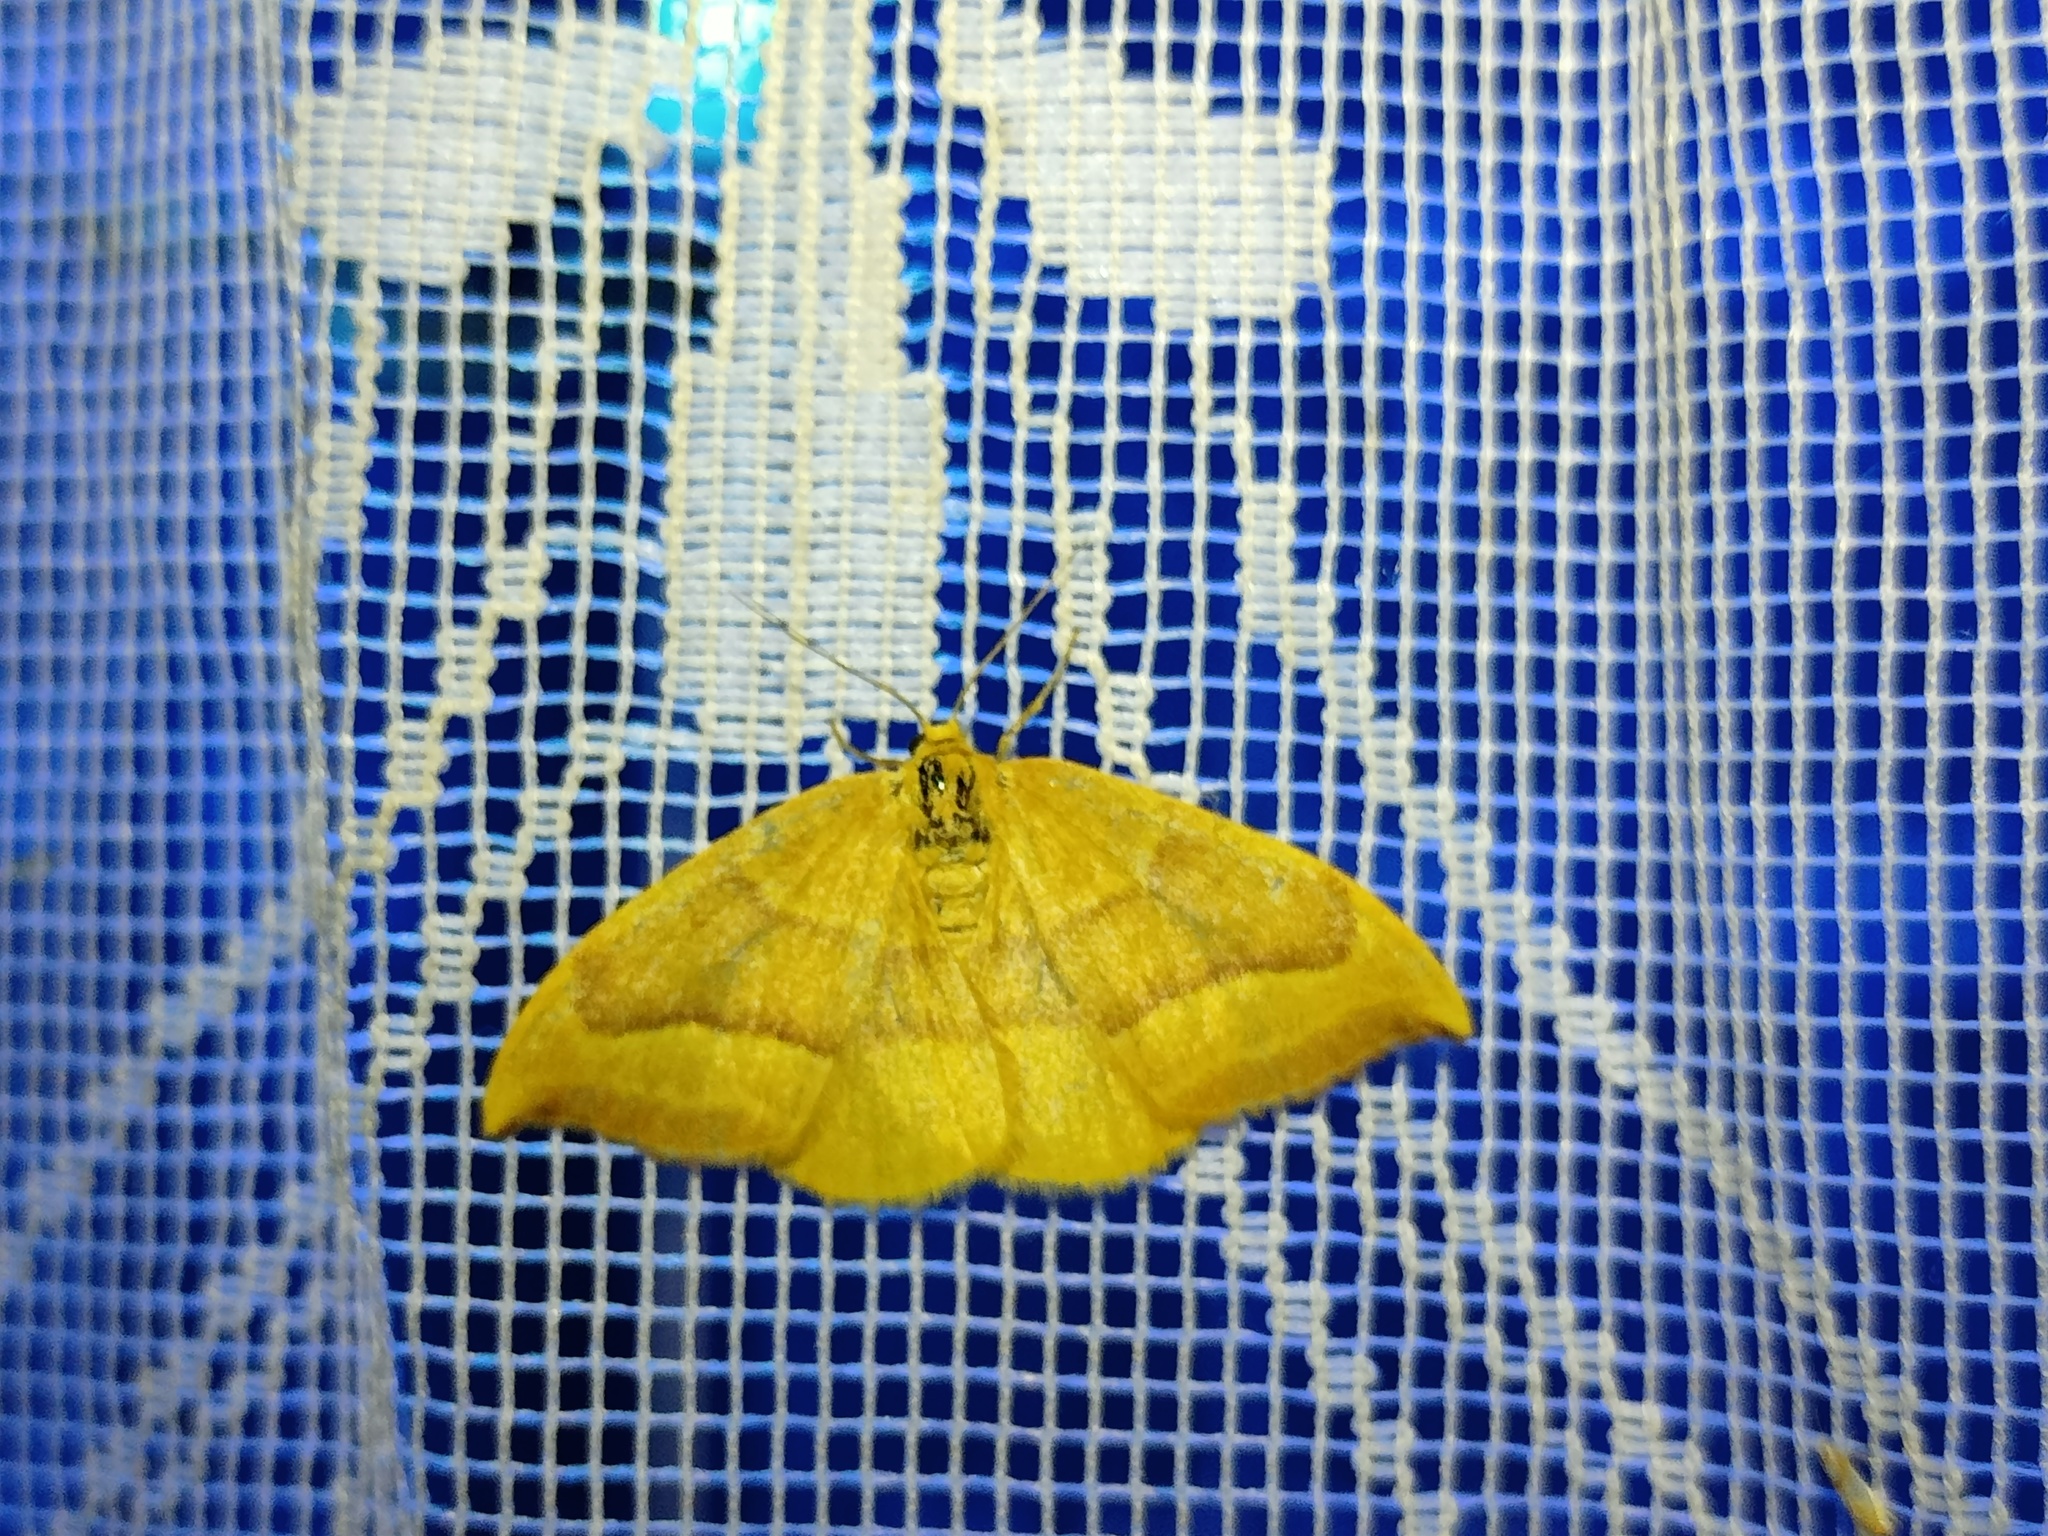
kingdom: Animalia
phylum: Arthropoda
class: Insecta
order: Lepidoptera
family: Drepanidae
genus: Watsonalla
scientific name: Watsonalla cultraria
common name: Barred hook-tip
